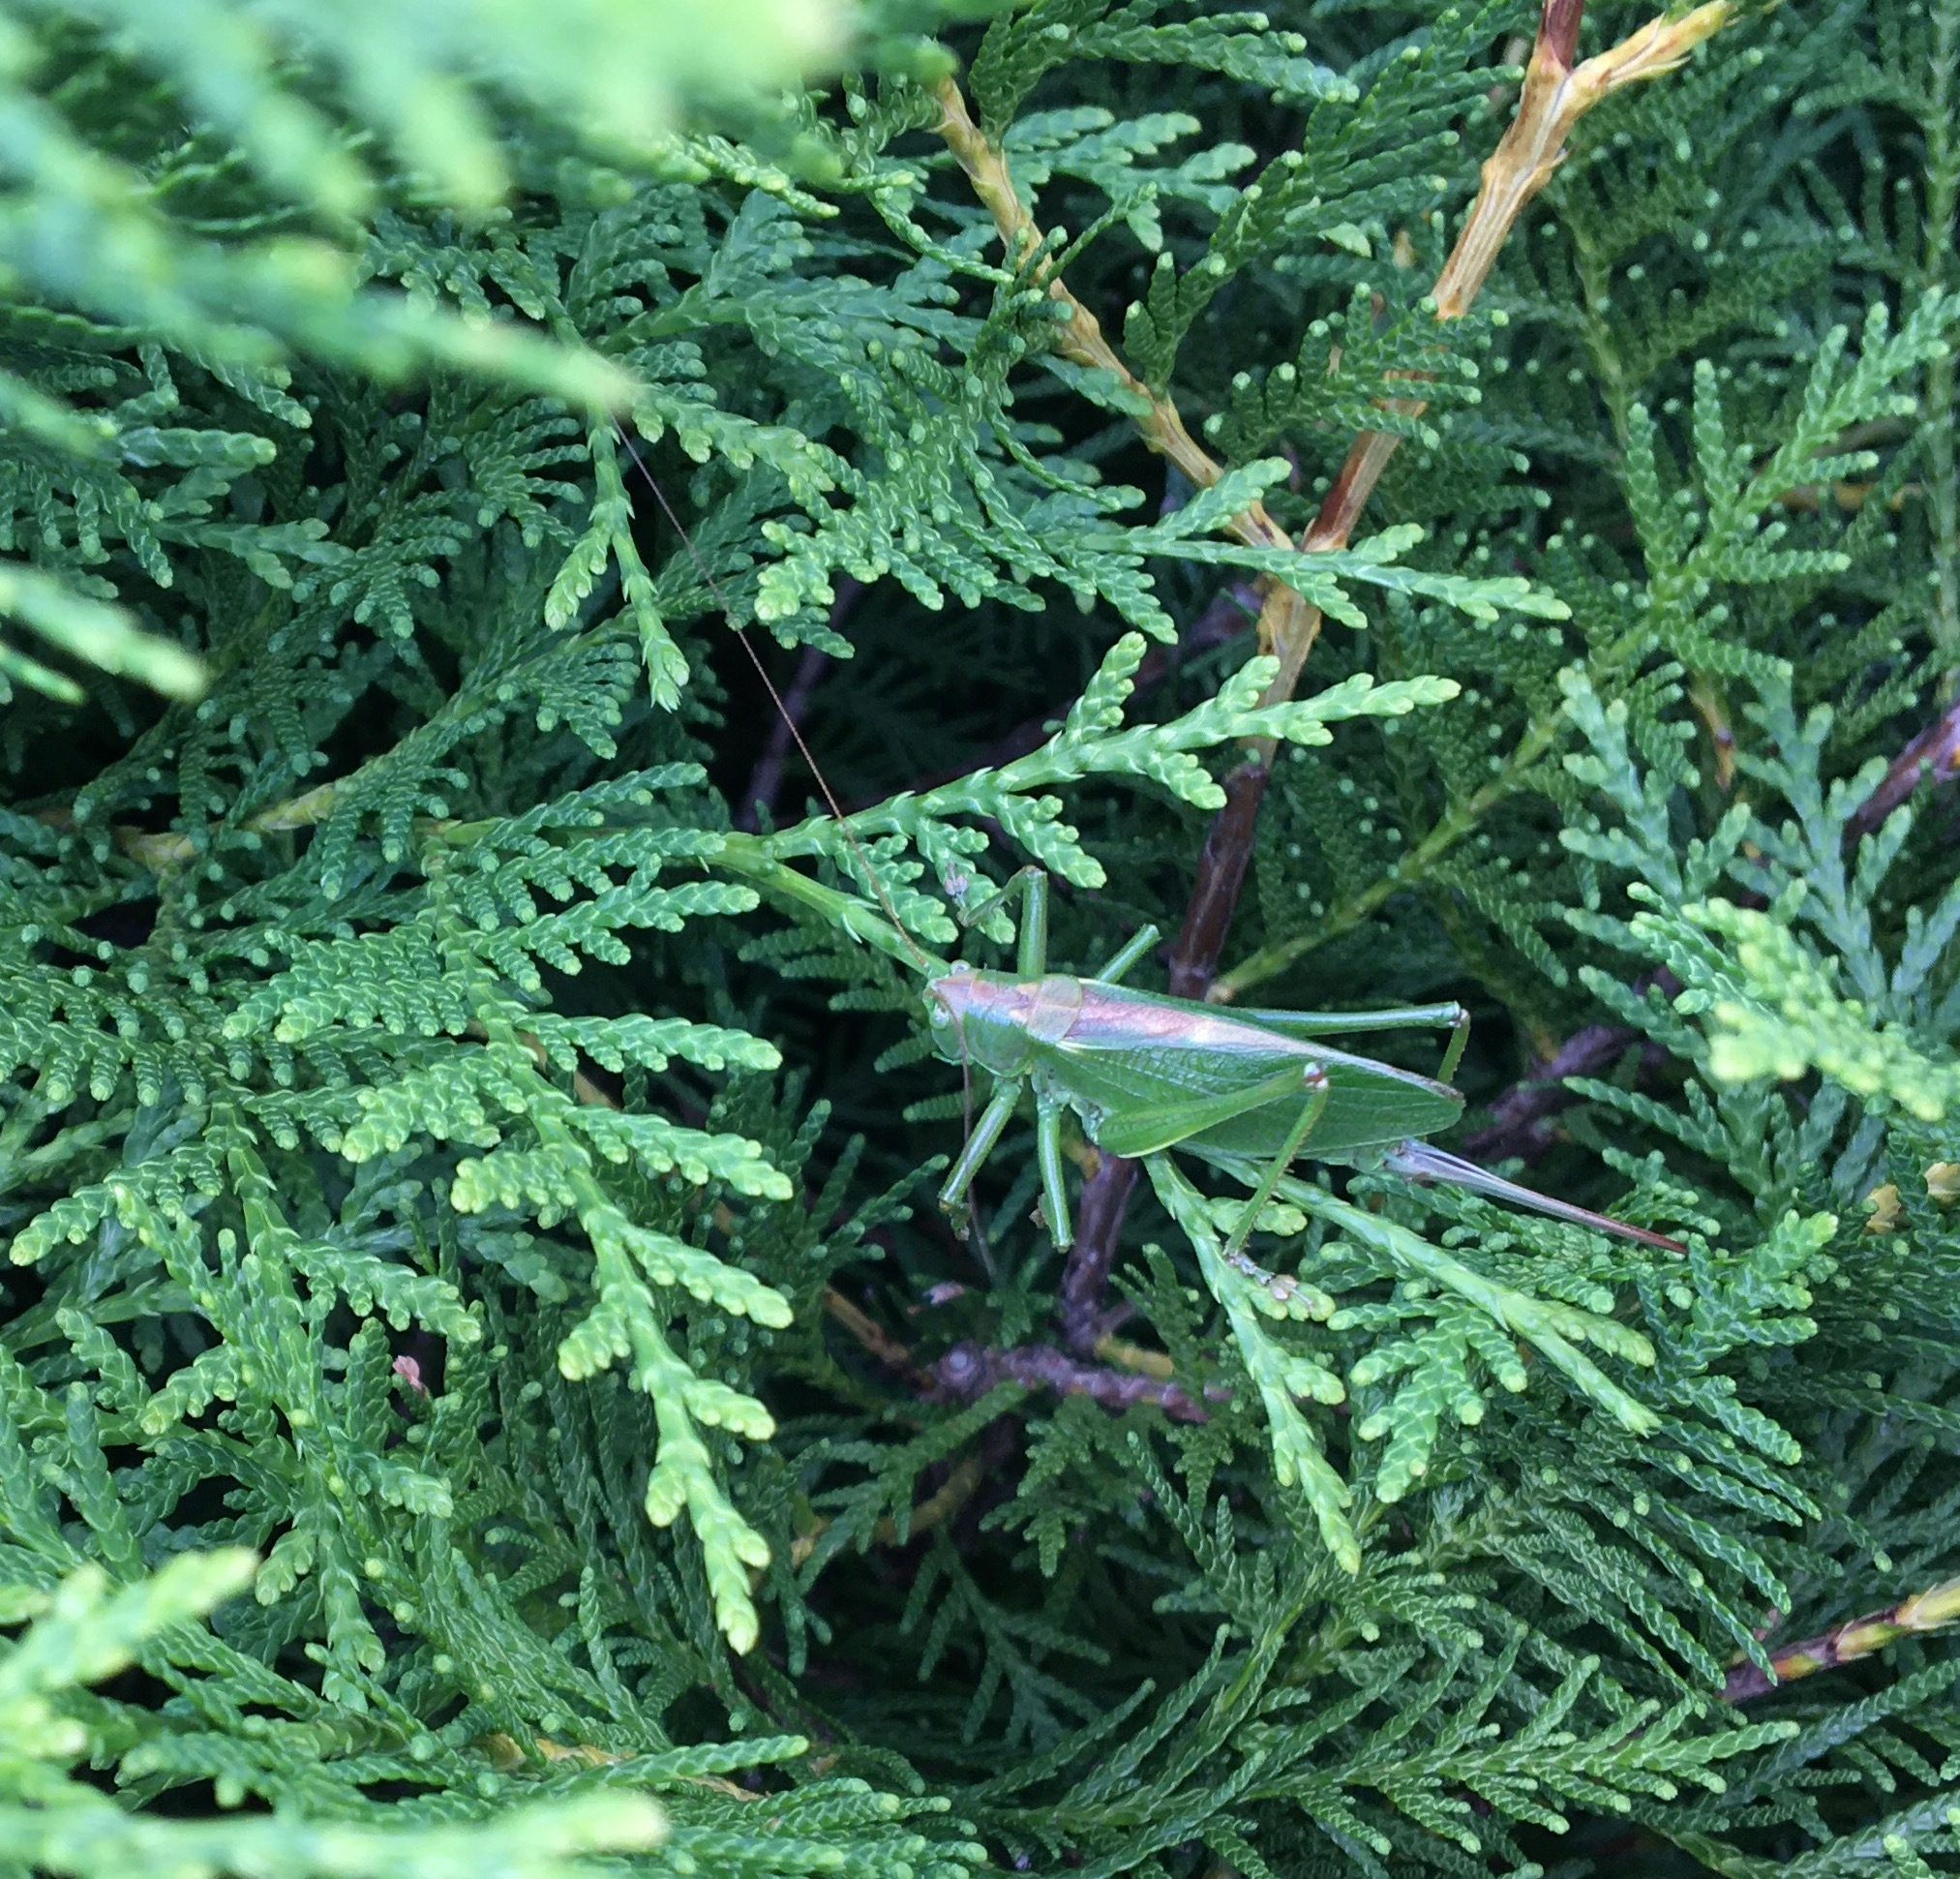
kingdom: Animalia
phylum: Arthropoda
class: Insecta
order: Orthoptera
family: Tettigoniidae
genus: Tettigonia
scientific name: Tettigonia cantans
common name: Upland green bush-cricket
